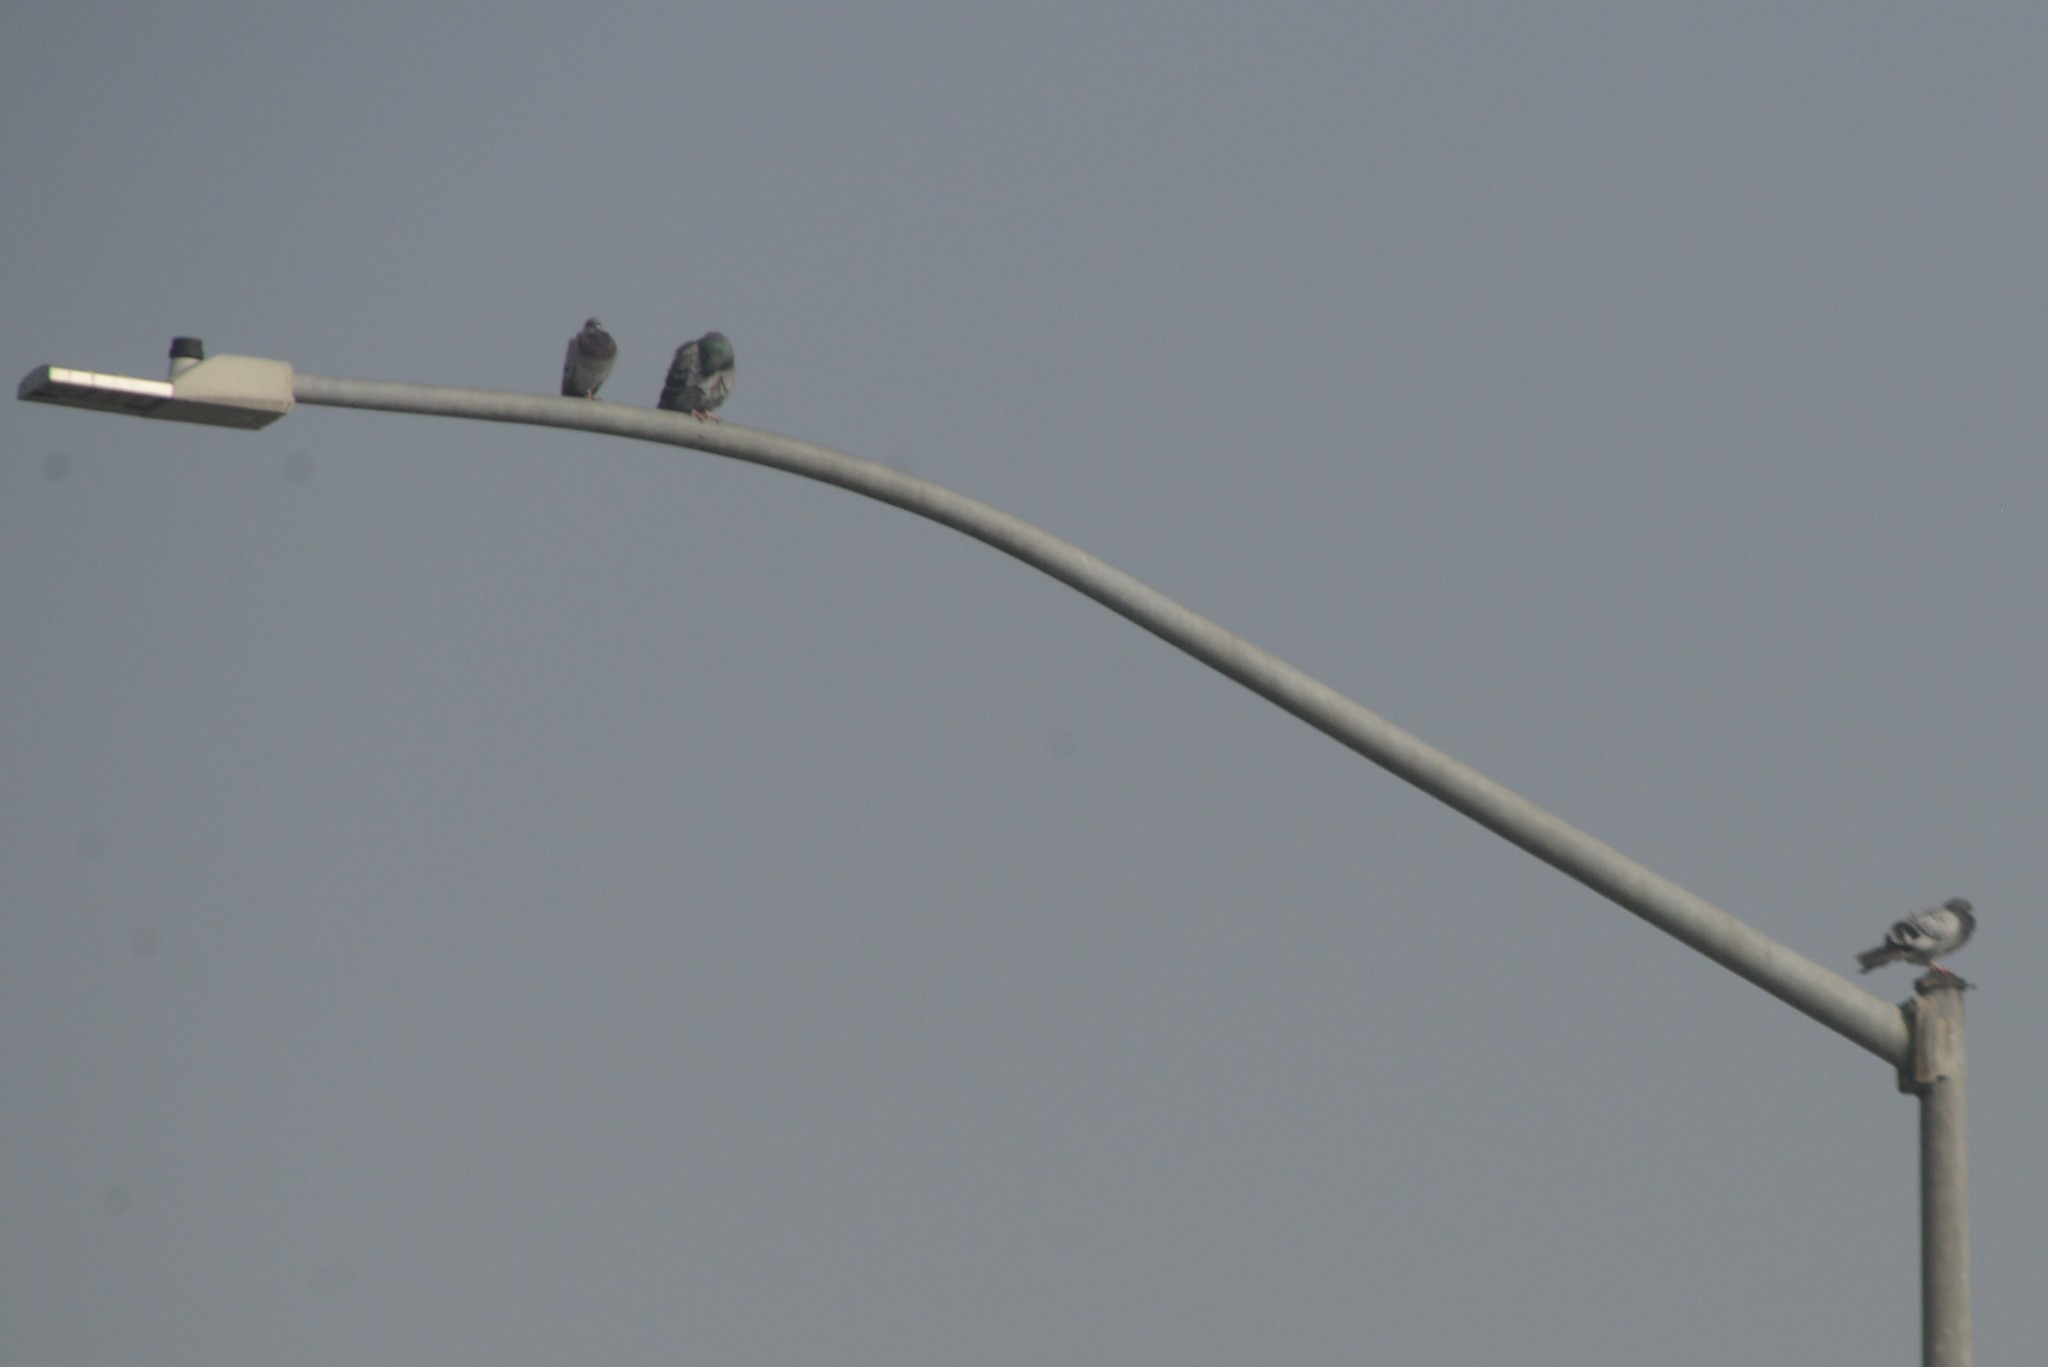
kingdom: Animalia
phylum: Chordata
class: Aves
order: Columbiformes
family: Columbidae
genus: Columba
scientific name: Columba livia
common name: Rock pigeon
